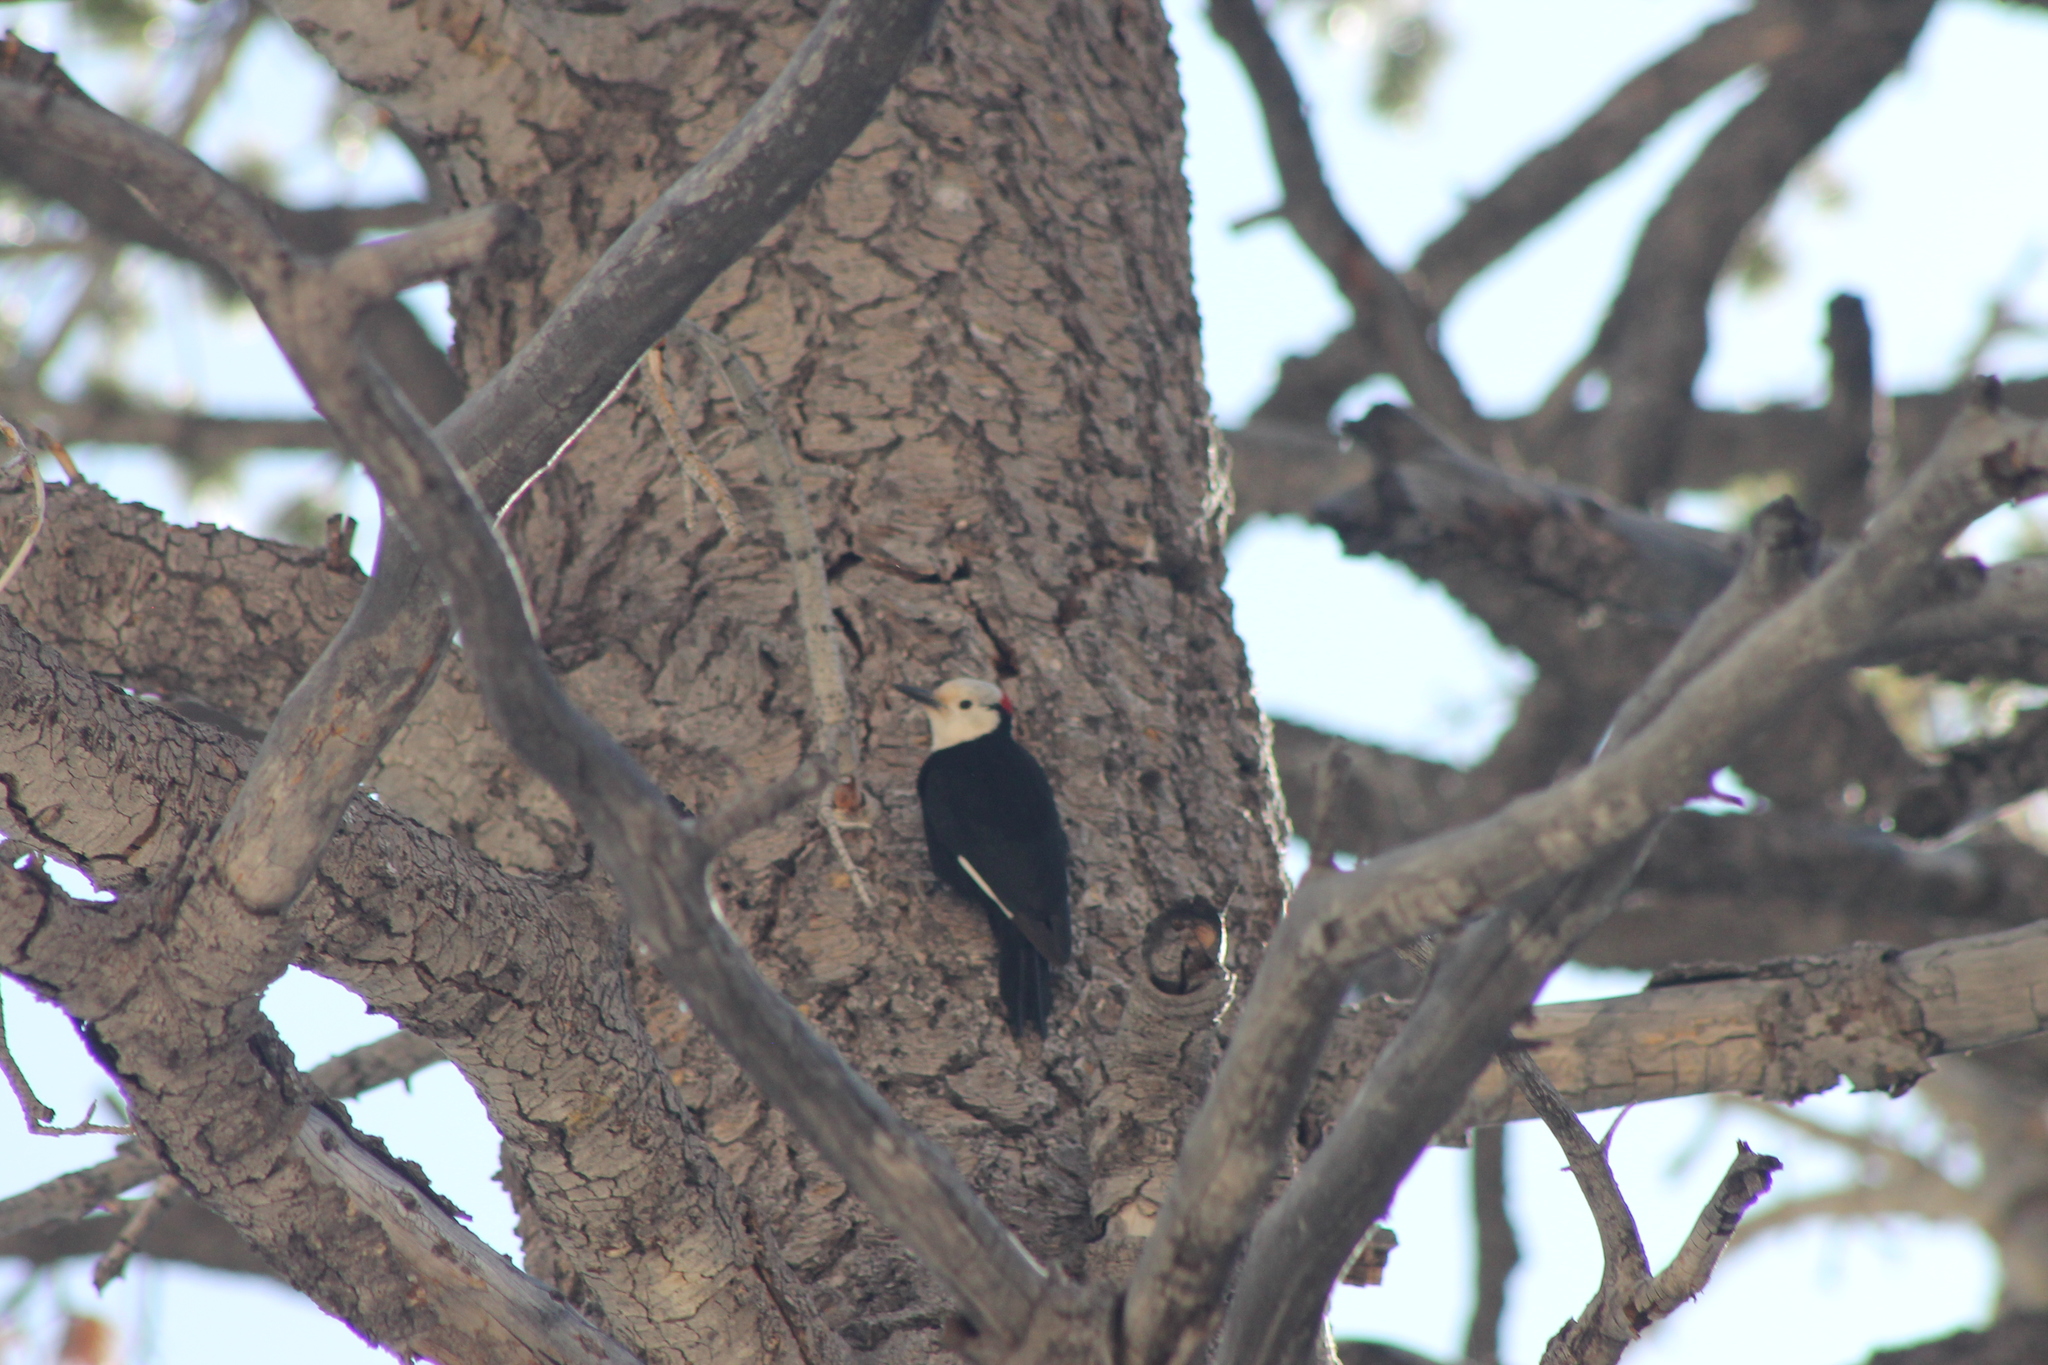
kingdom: Animalia
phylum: Chordata
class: Aves
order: Piciformes
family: Picidae
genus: Leuconotopicus
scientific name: Leuconotopicus albolarvatus
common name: White-headed woodpecker
